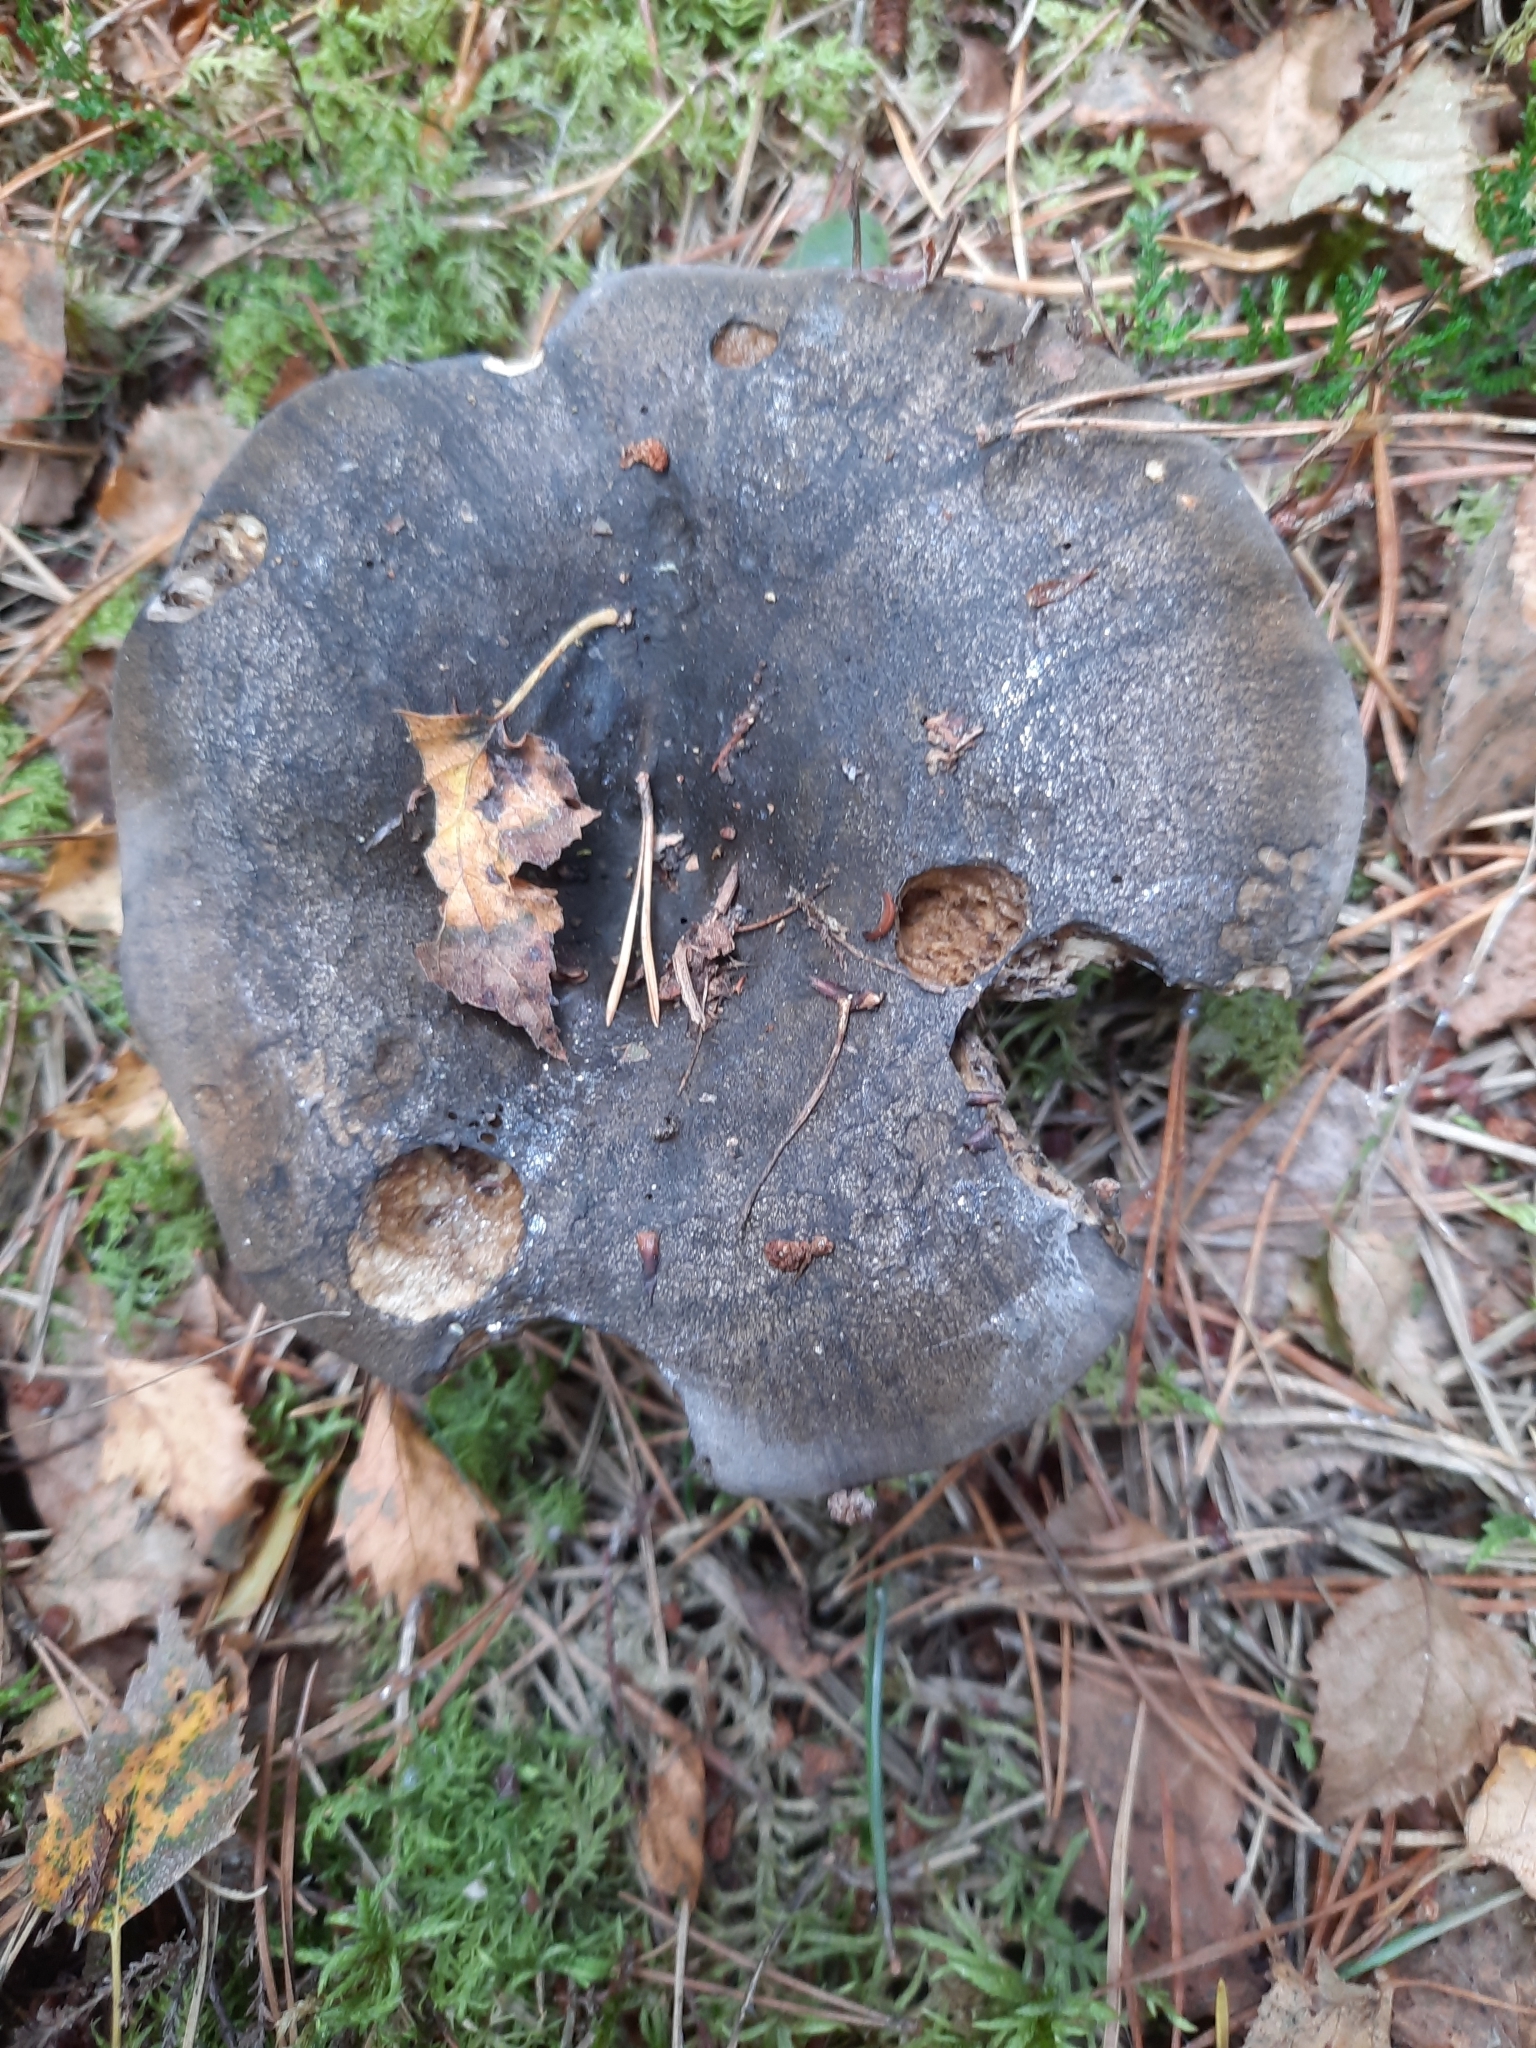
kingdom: Fungi
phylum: Basidiomycota
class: Agaricomycetes
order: Russulales
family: Russulaceae
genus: Lactarius
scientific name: Lactarius turpis
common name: Ugly milk-cap
